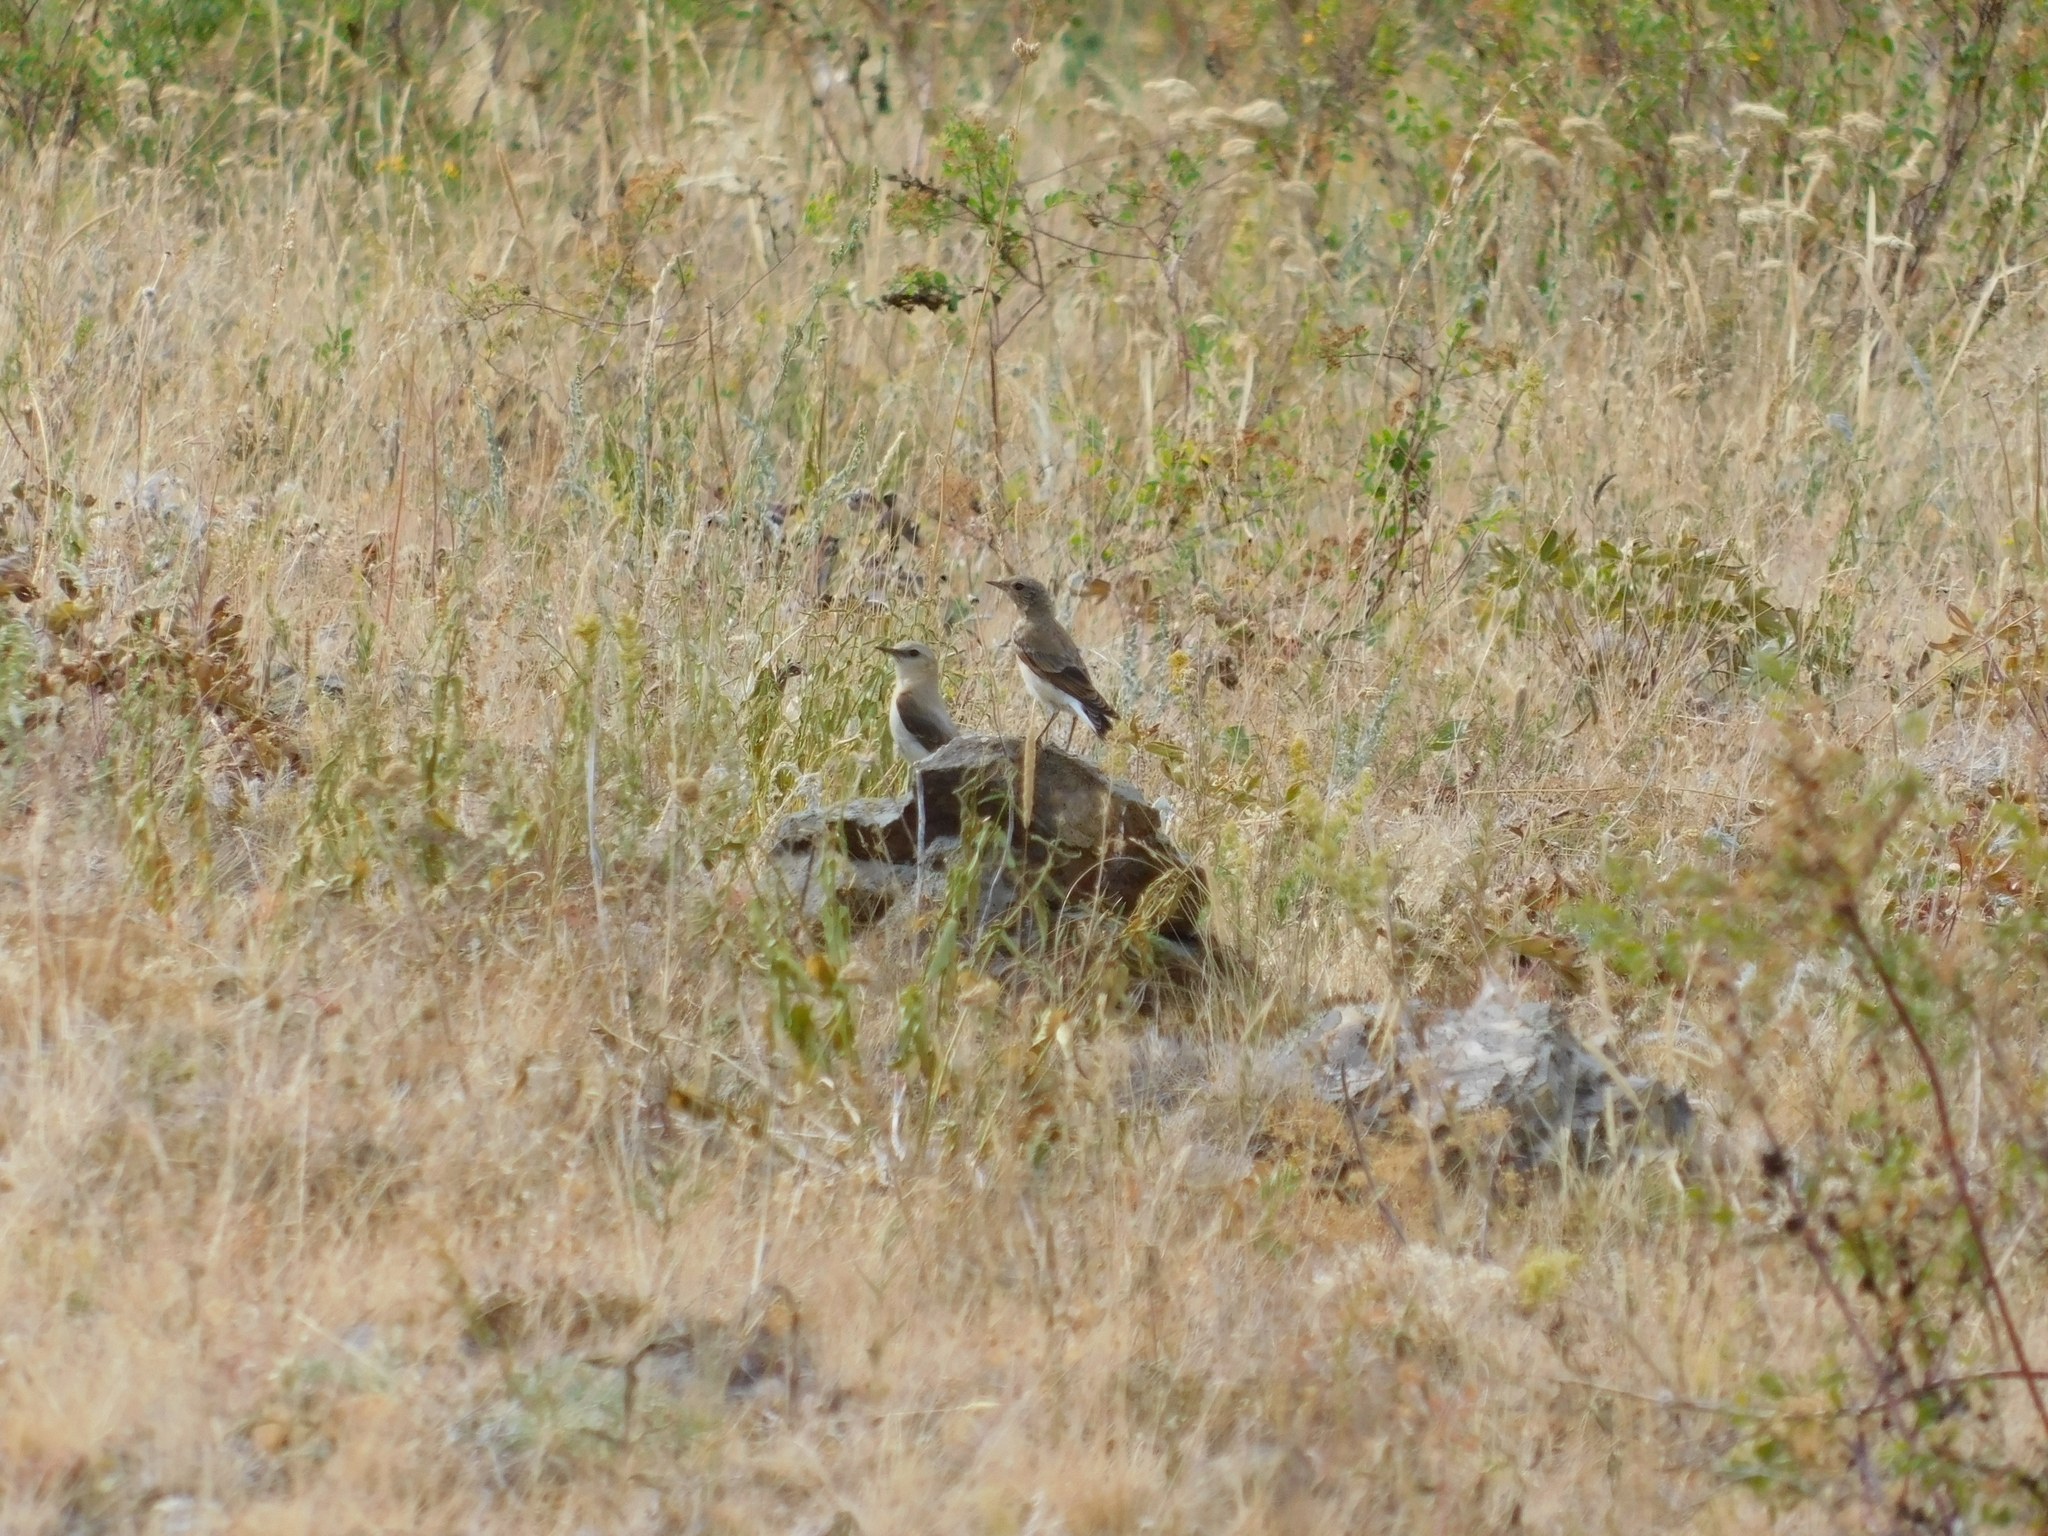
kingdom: Animalia
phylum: Chordata
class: Aves
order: Passeriformes
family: Muscicapidae
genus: Oenanthe
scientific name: Oenanthe oenanthe
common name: Northern wheatear
